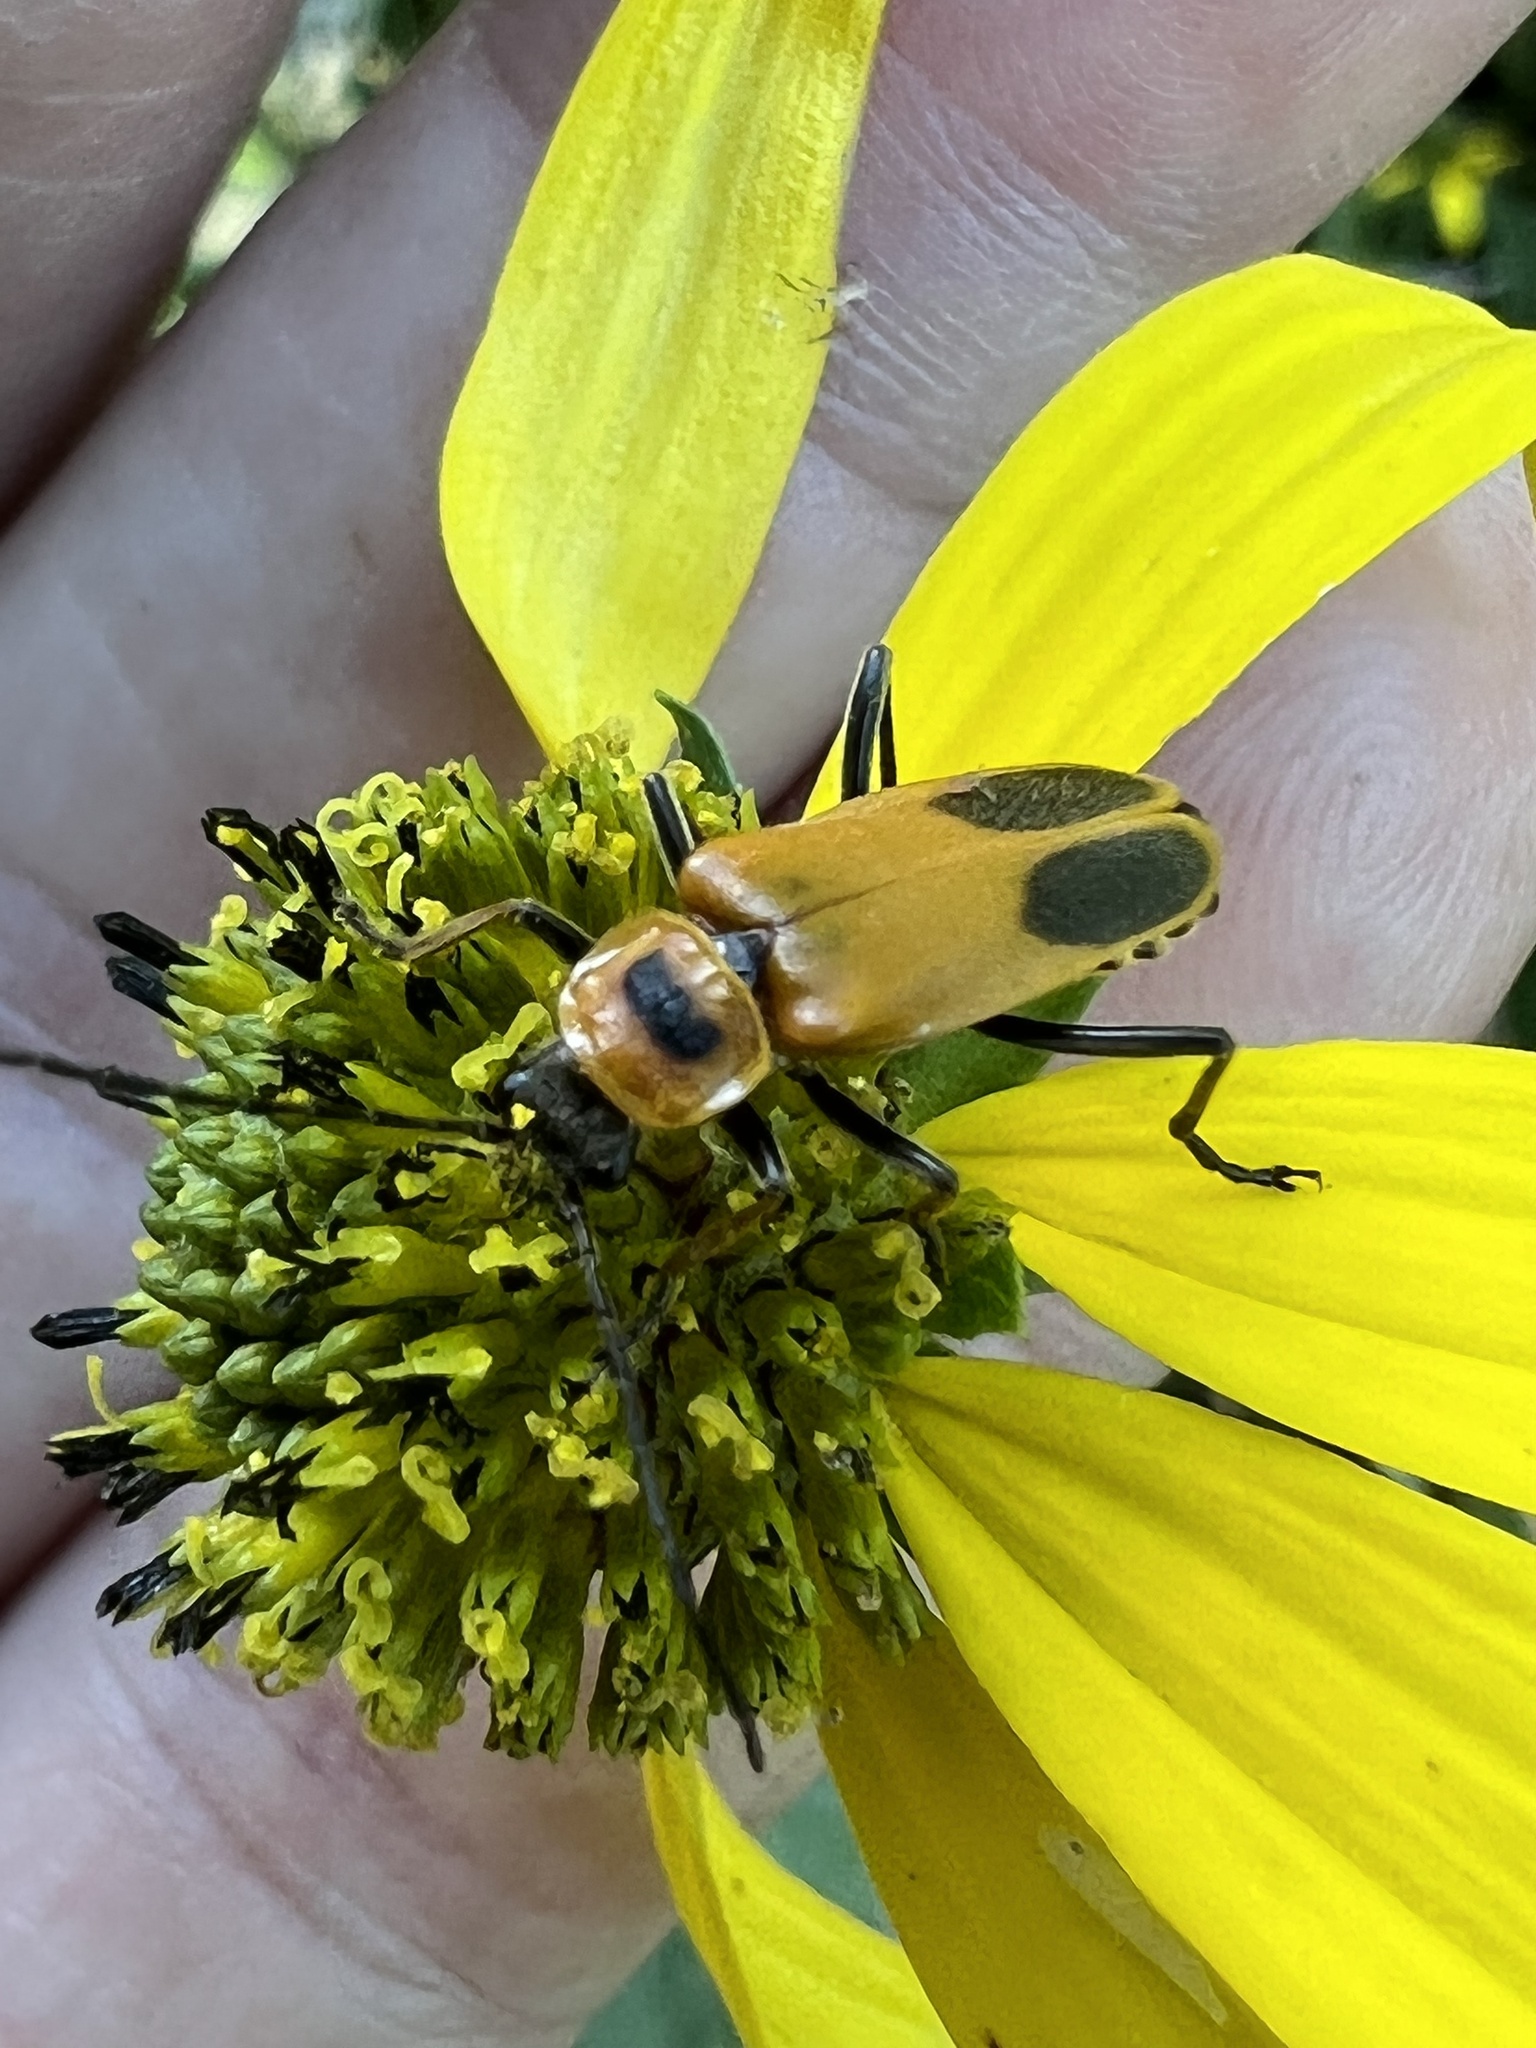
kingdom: Animalia
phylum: Arthropoda
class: Insecta
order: Coleoptera
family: Cantharidae
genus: Chauliognathus
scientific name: Chauliognathus pensylvanicus
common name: Goldenrod soldier beetle
